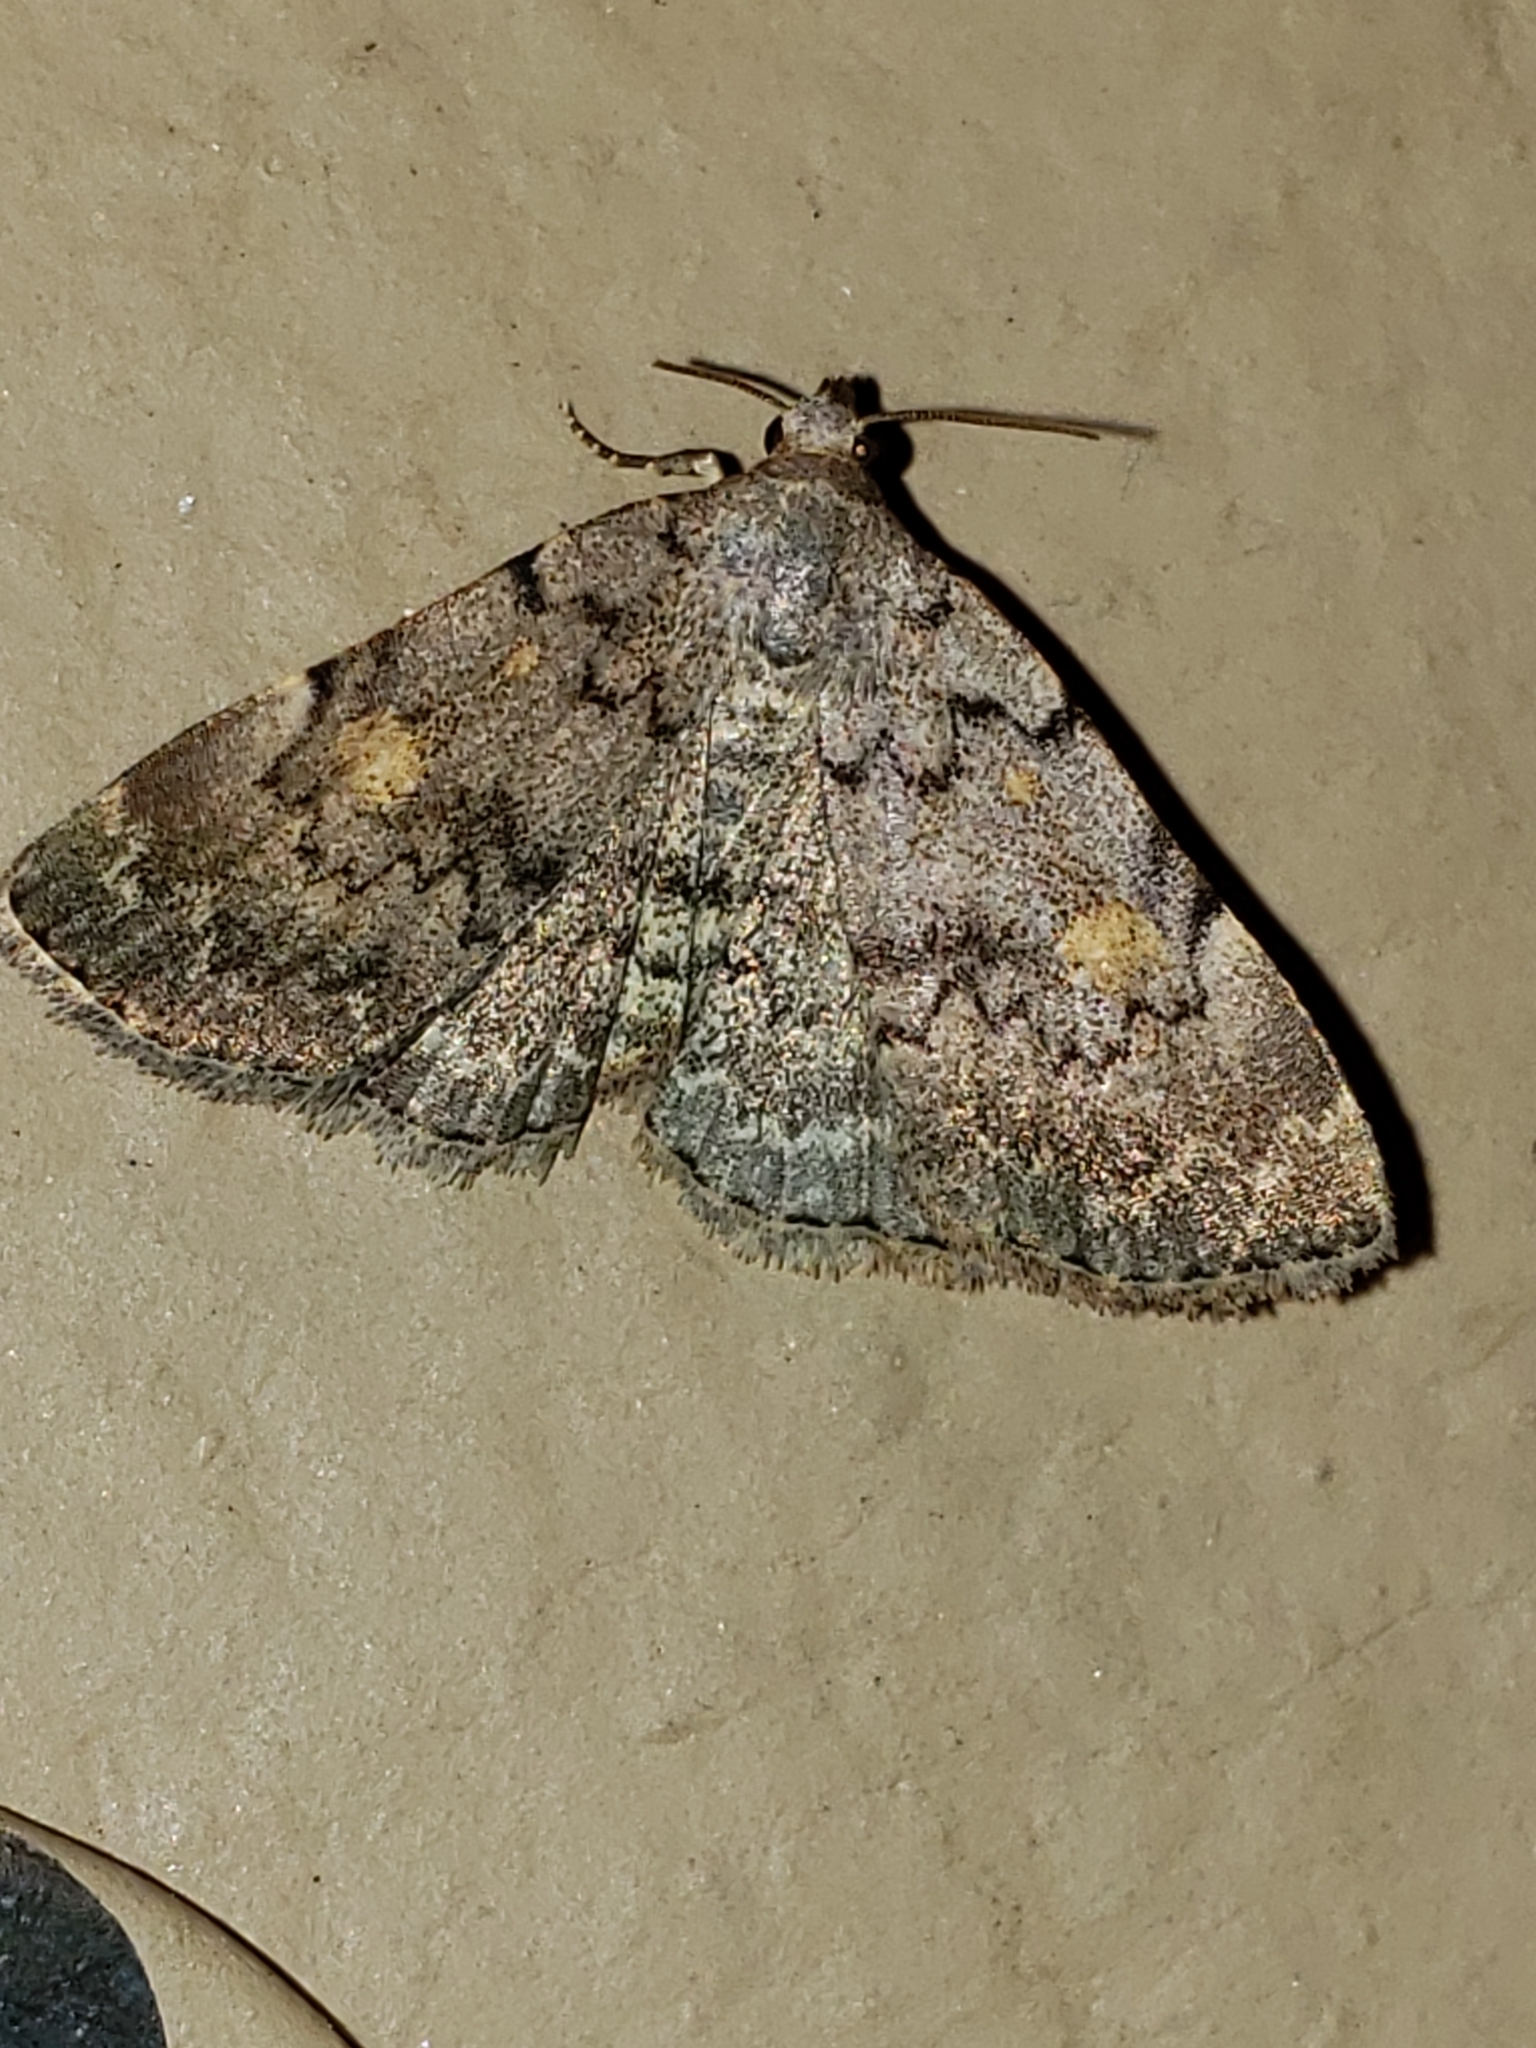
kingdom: Animalia
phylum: Arthropoda
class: Insecta
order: Lepidoptera
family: Erebidae
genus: Idia
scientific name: Idia aemula
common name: Common idia moth
